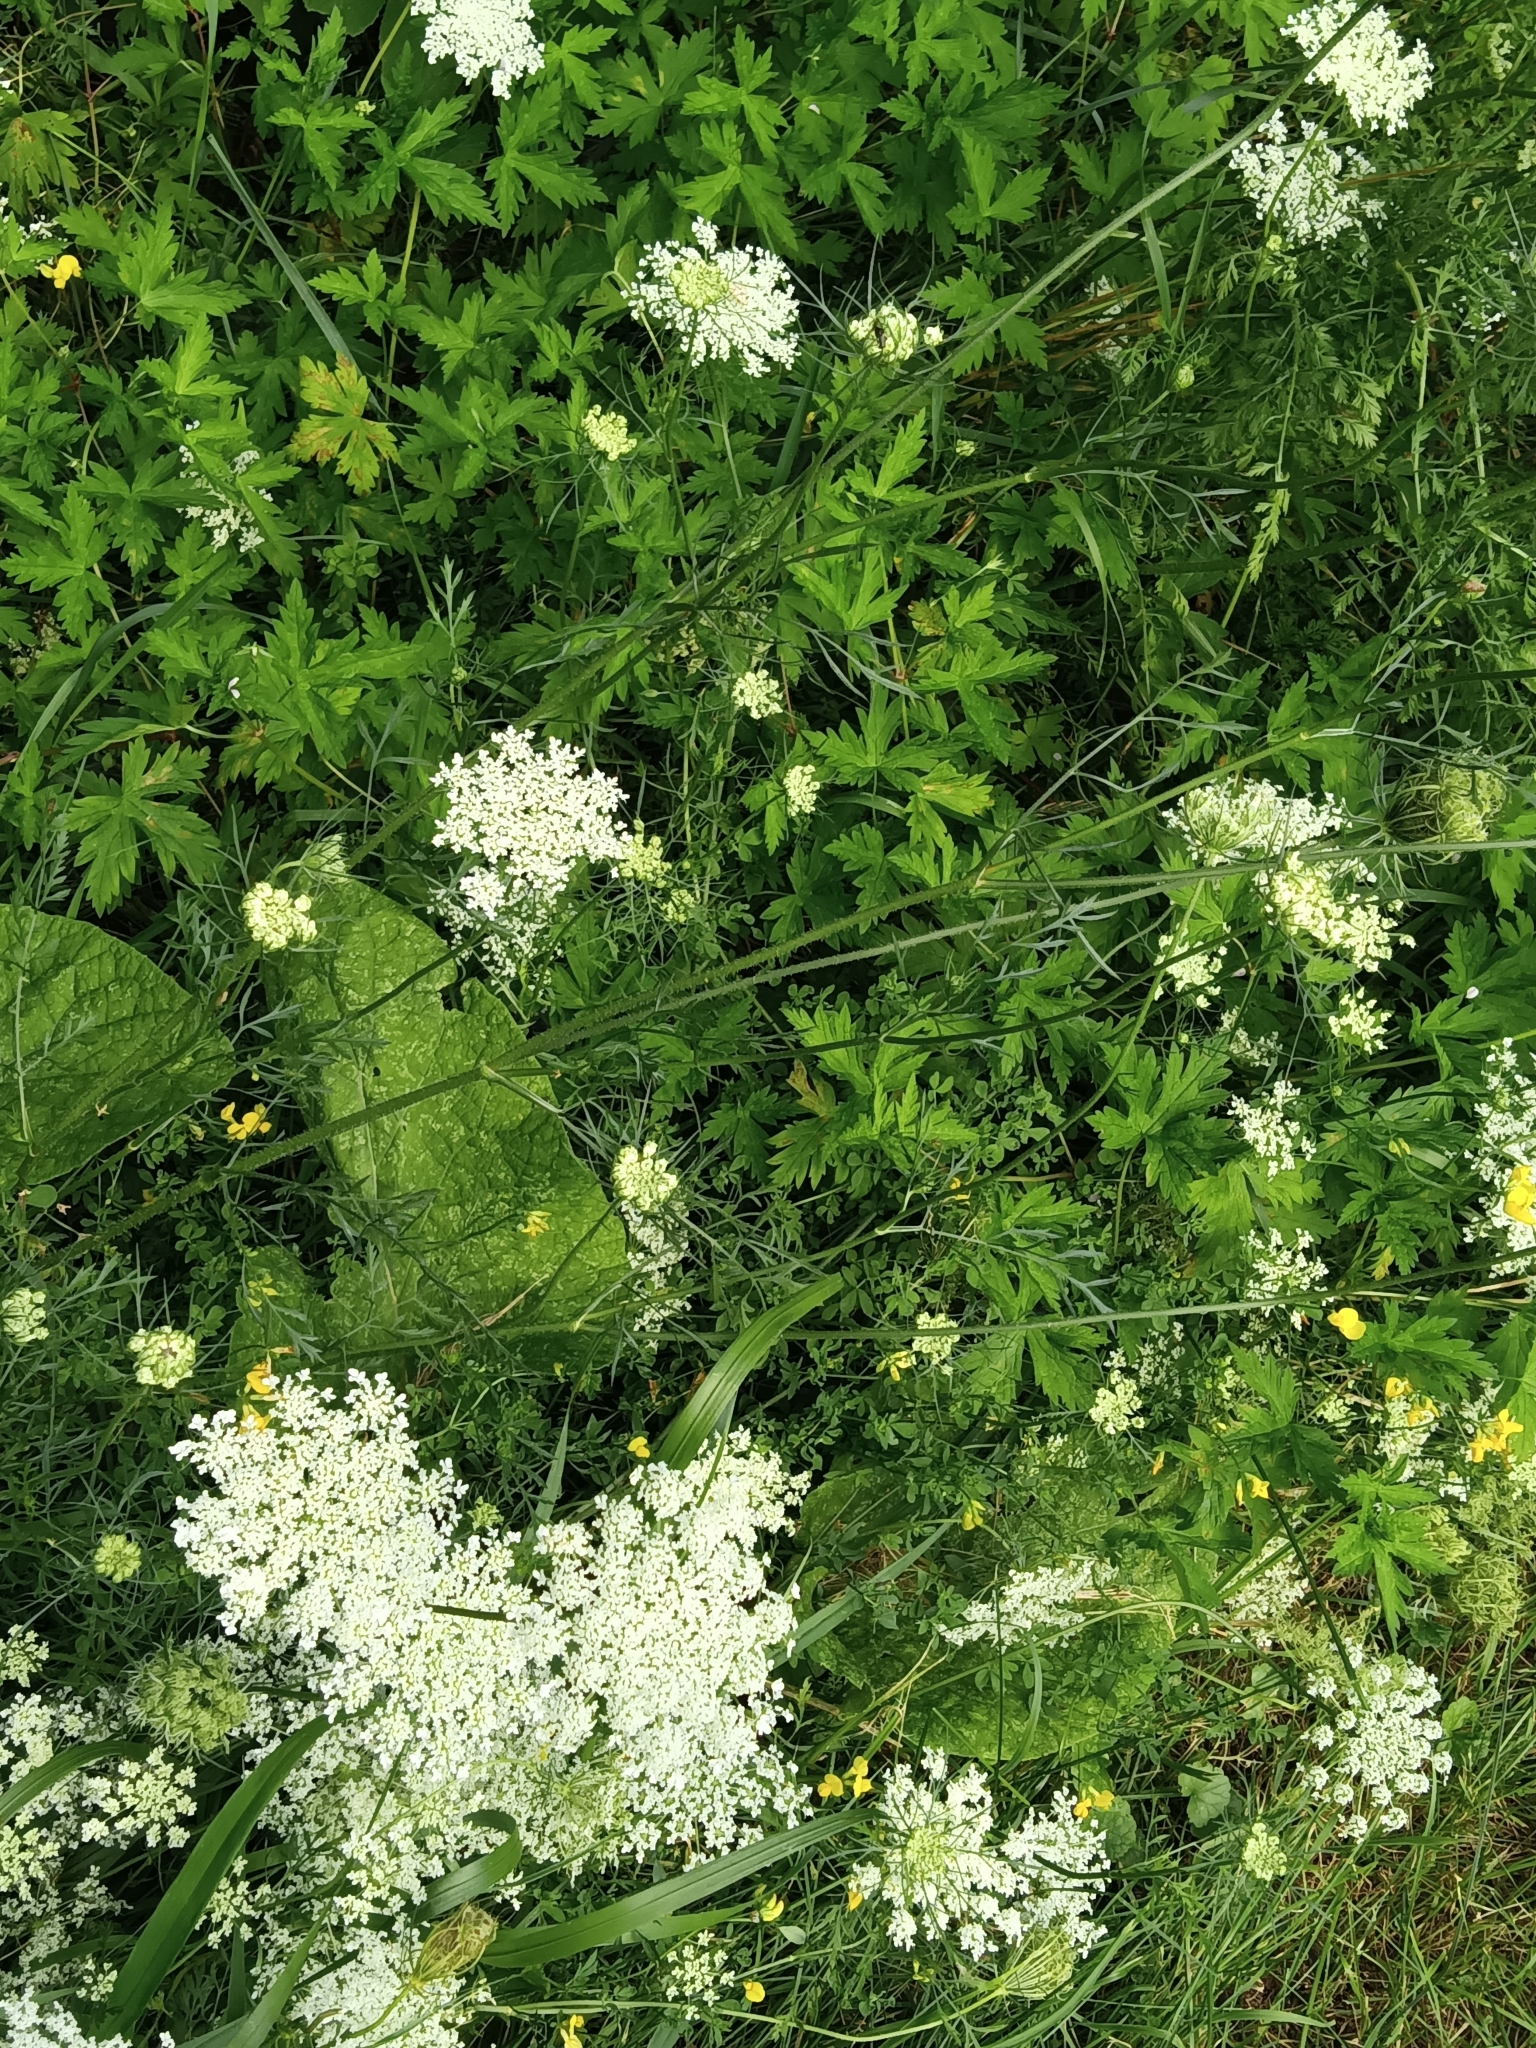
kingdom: Plantae
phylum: Tracheophyta
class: Magnoliopsida
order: Apiales
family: Apiaceae
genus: Daucus
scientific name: Daucus carota
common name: Wild carrot
